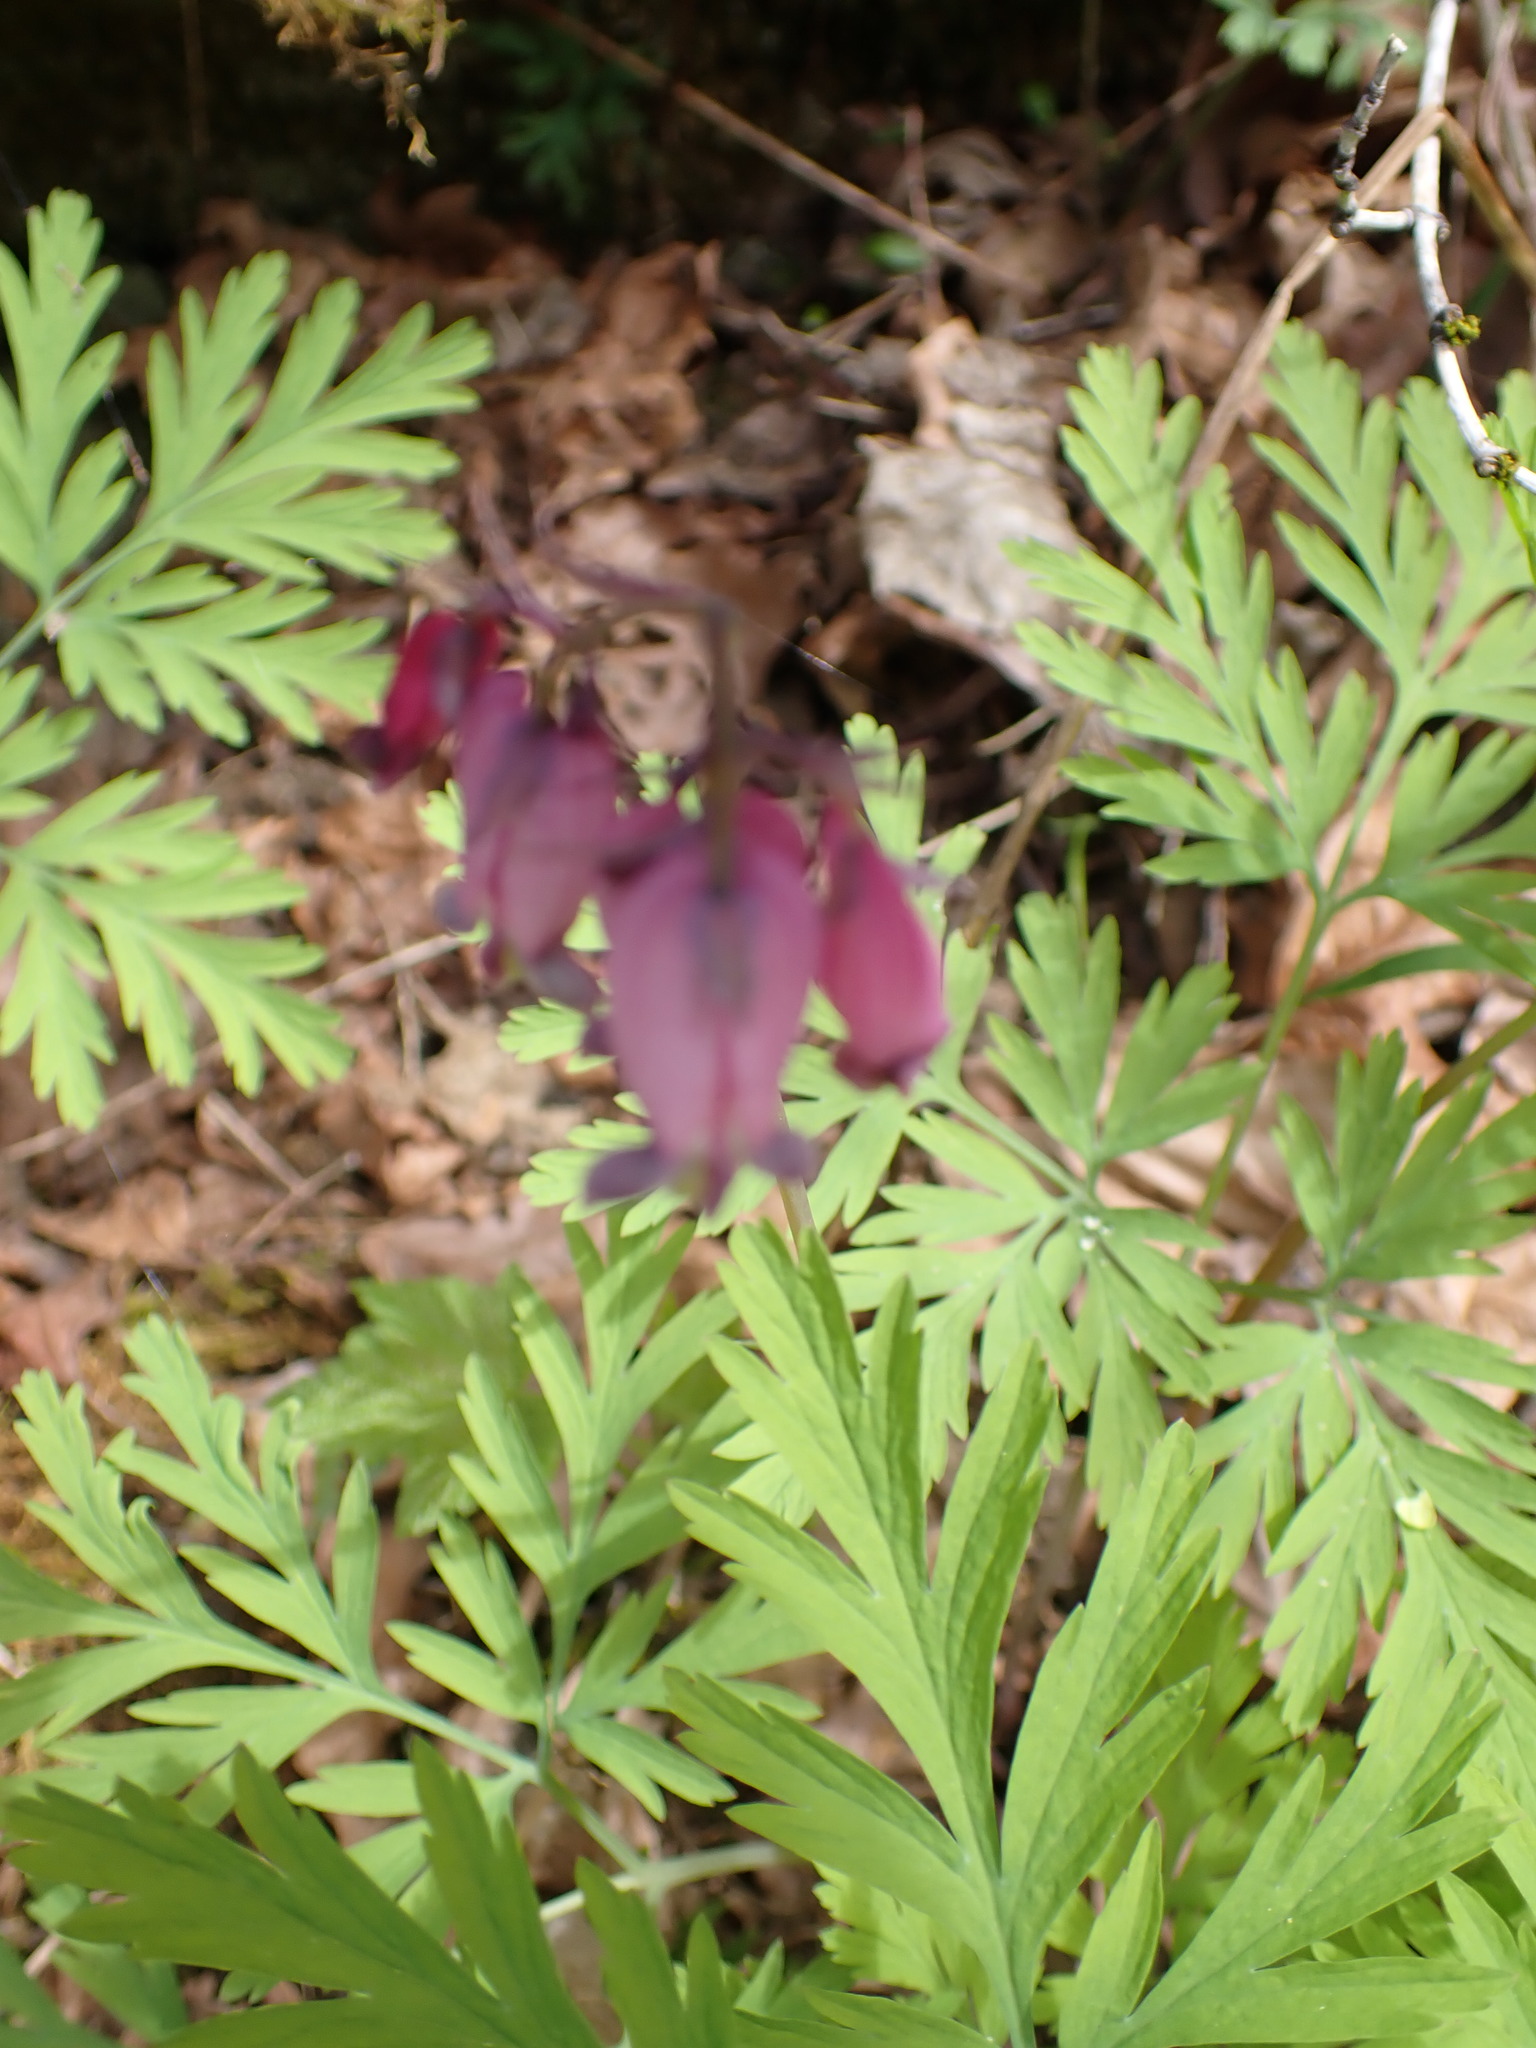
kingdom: Plantae
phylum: Tracheophyta
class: Magnoliopsida
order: Ranunculales
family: Papaveraceae
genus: Dicentra
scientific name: Dicentra formosa
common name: Bleeding-heart
